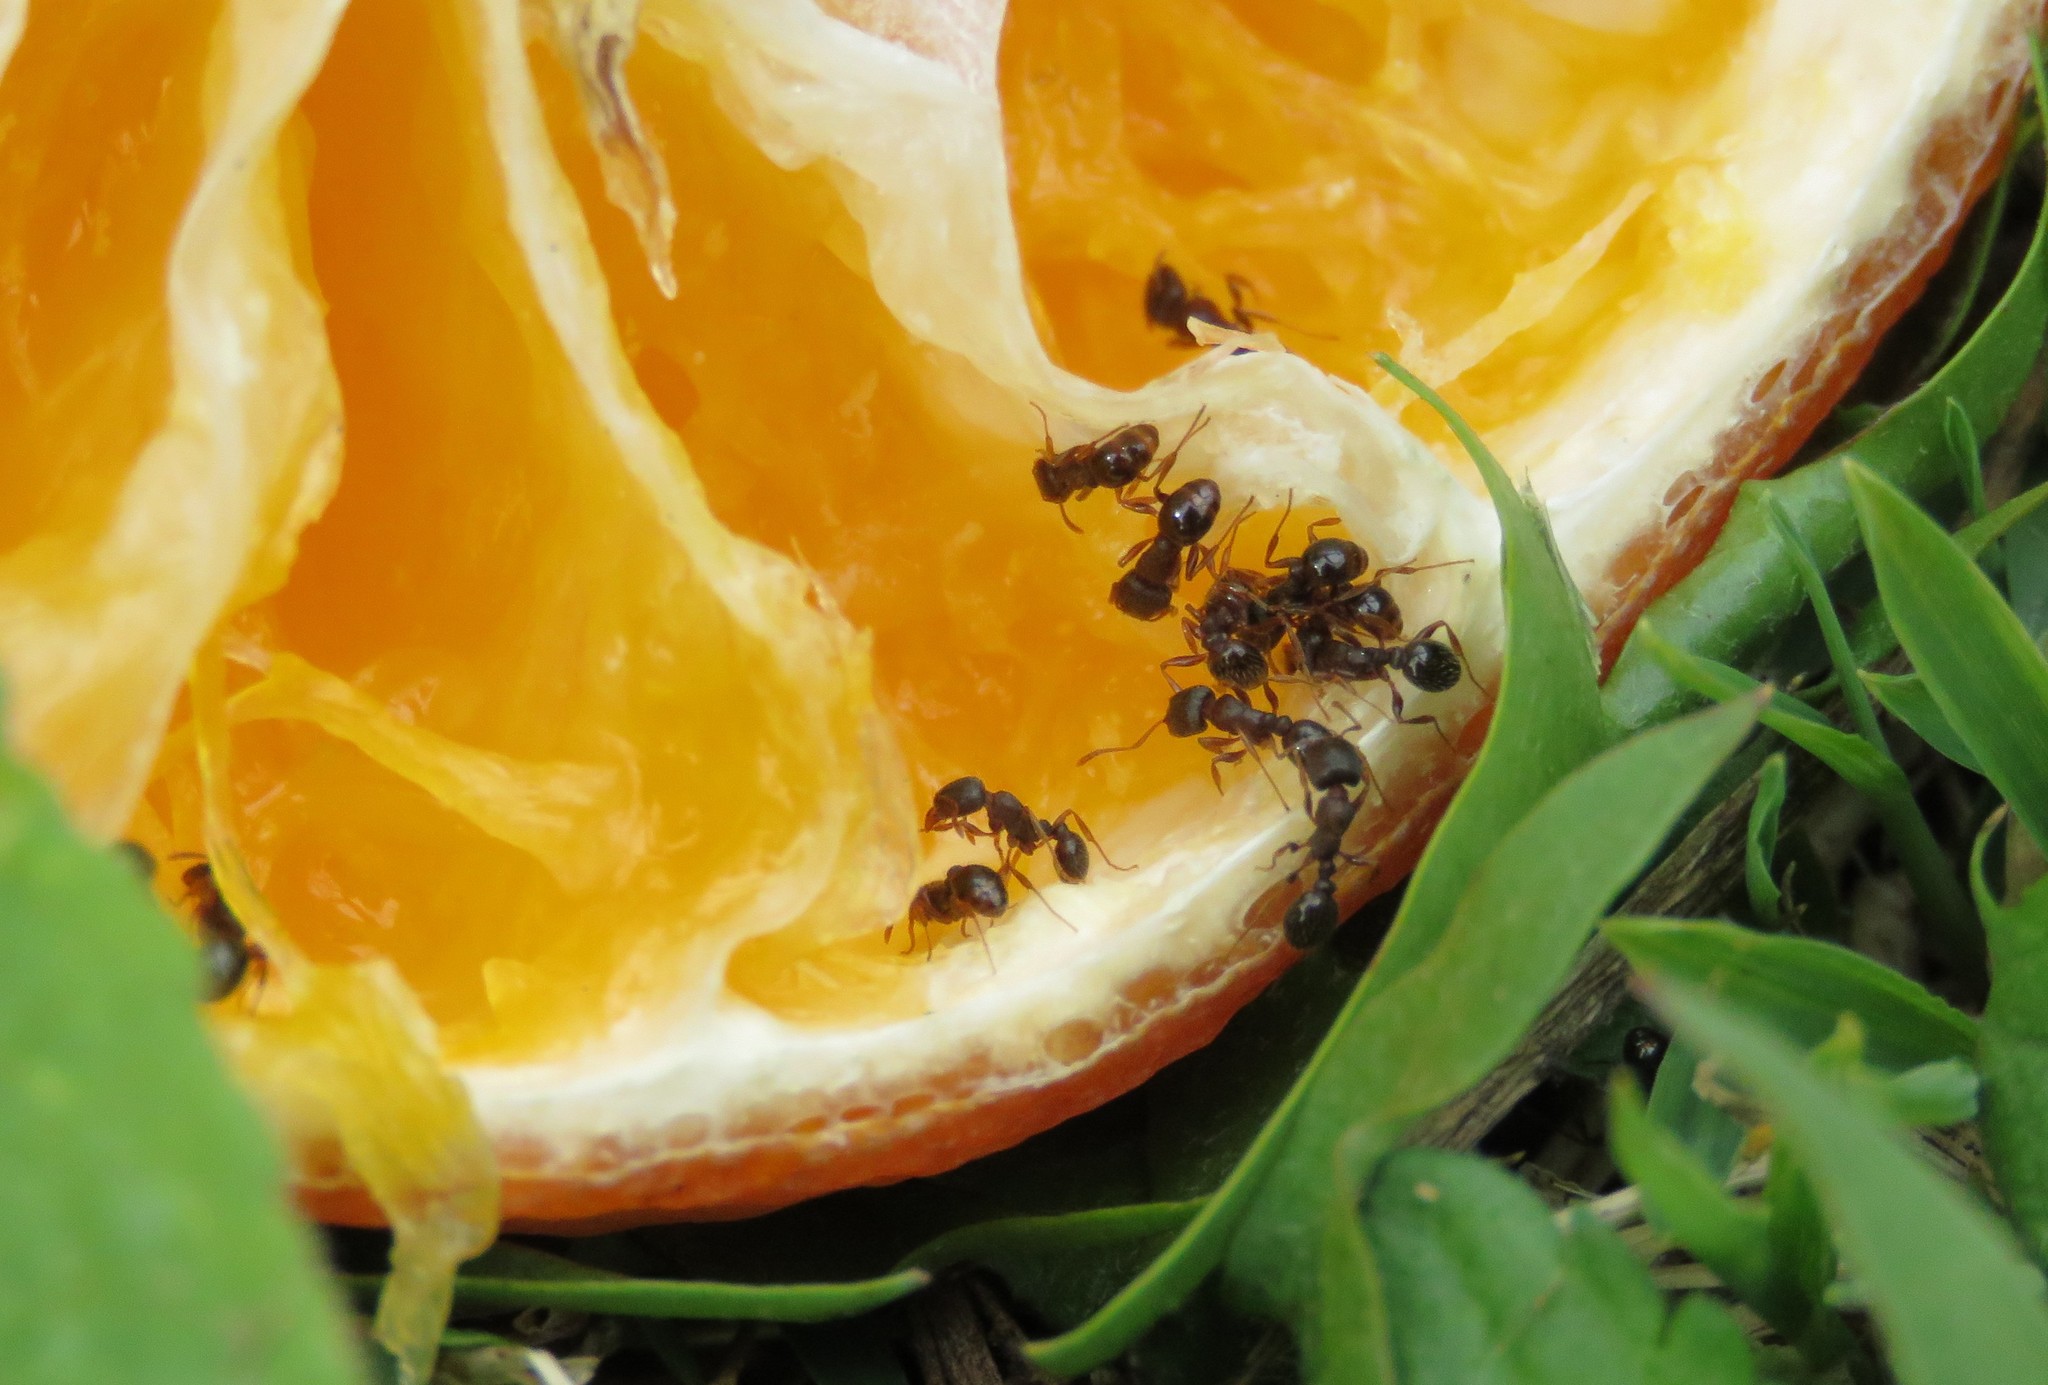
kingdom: Animalia
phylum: Arthropoda
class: Insecta
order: Hymenoptera
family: Formicidae
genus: Tetramorium
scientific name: Tetramorium immigrans
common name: Pavement ant
